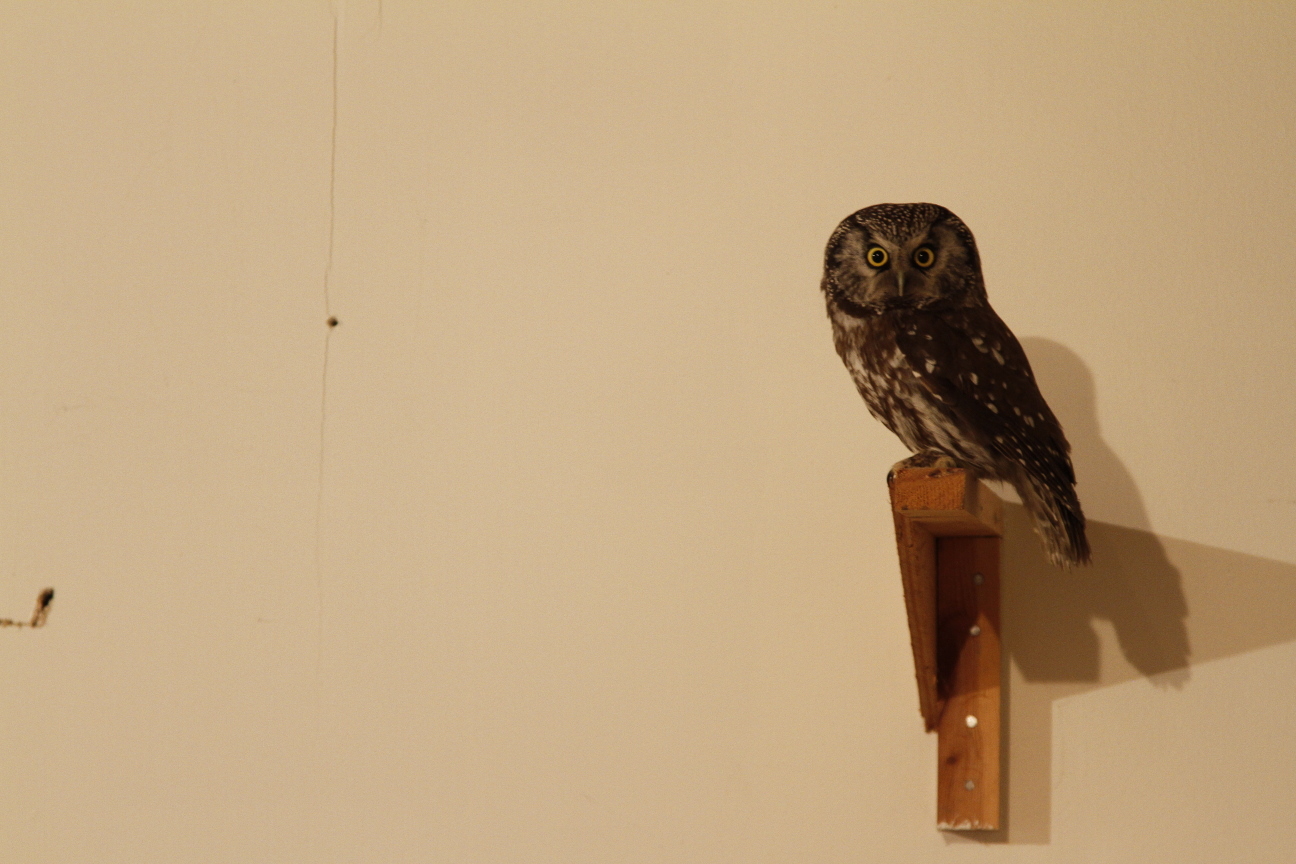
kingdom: Animalia
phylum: Chordata
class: Aves
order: Strigiformes
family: Strigidae
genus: Aegolius
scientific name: Aegolius funereus
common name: Boreal owl
